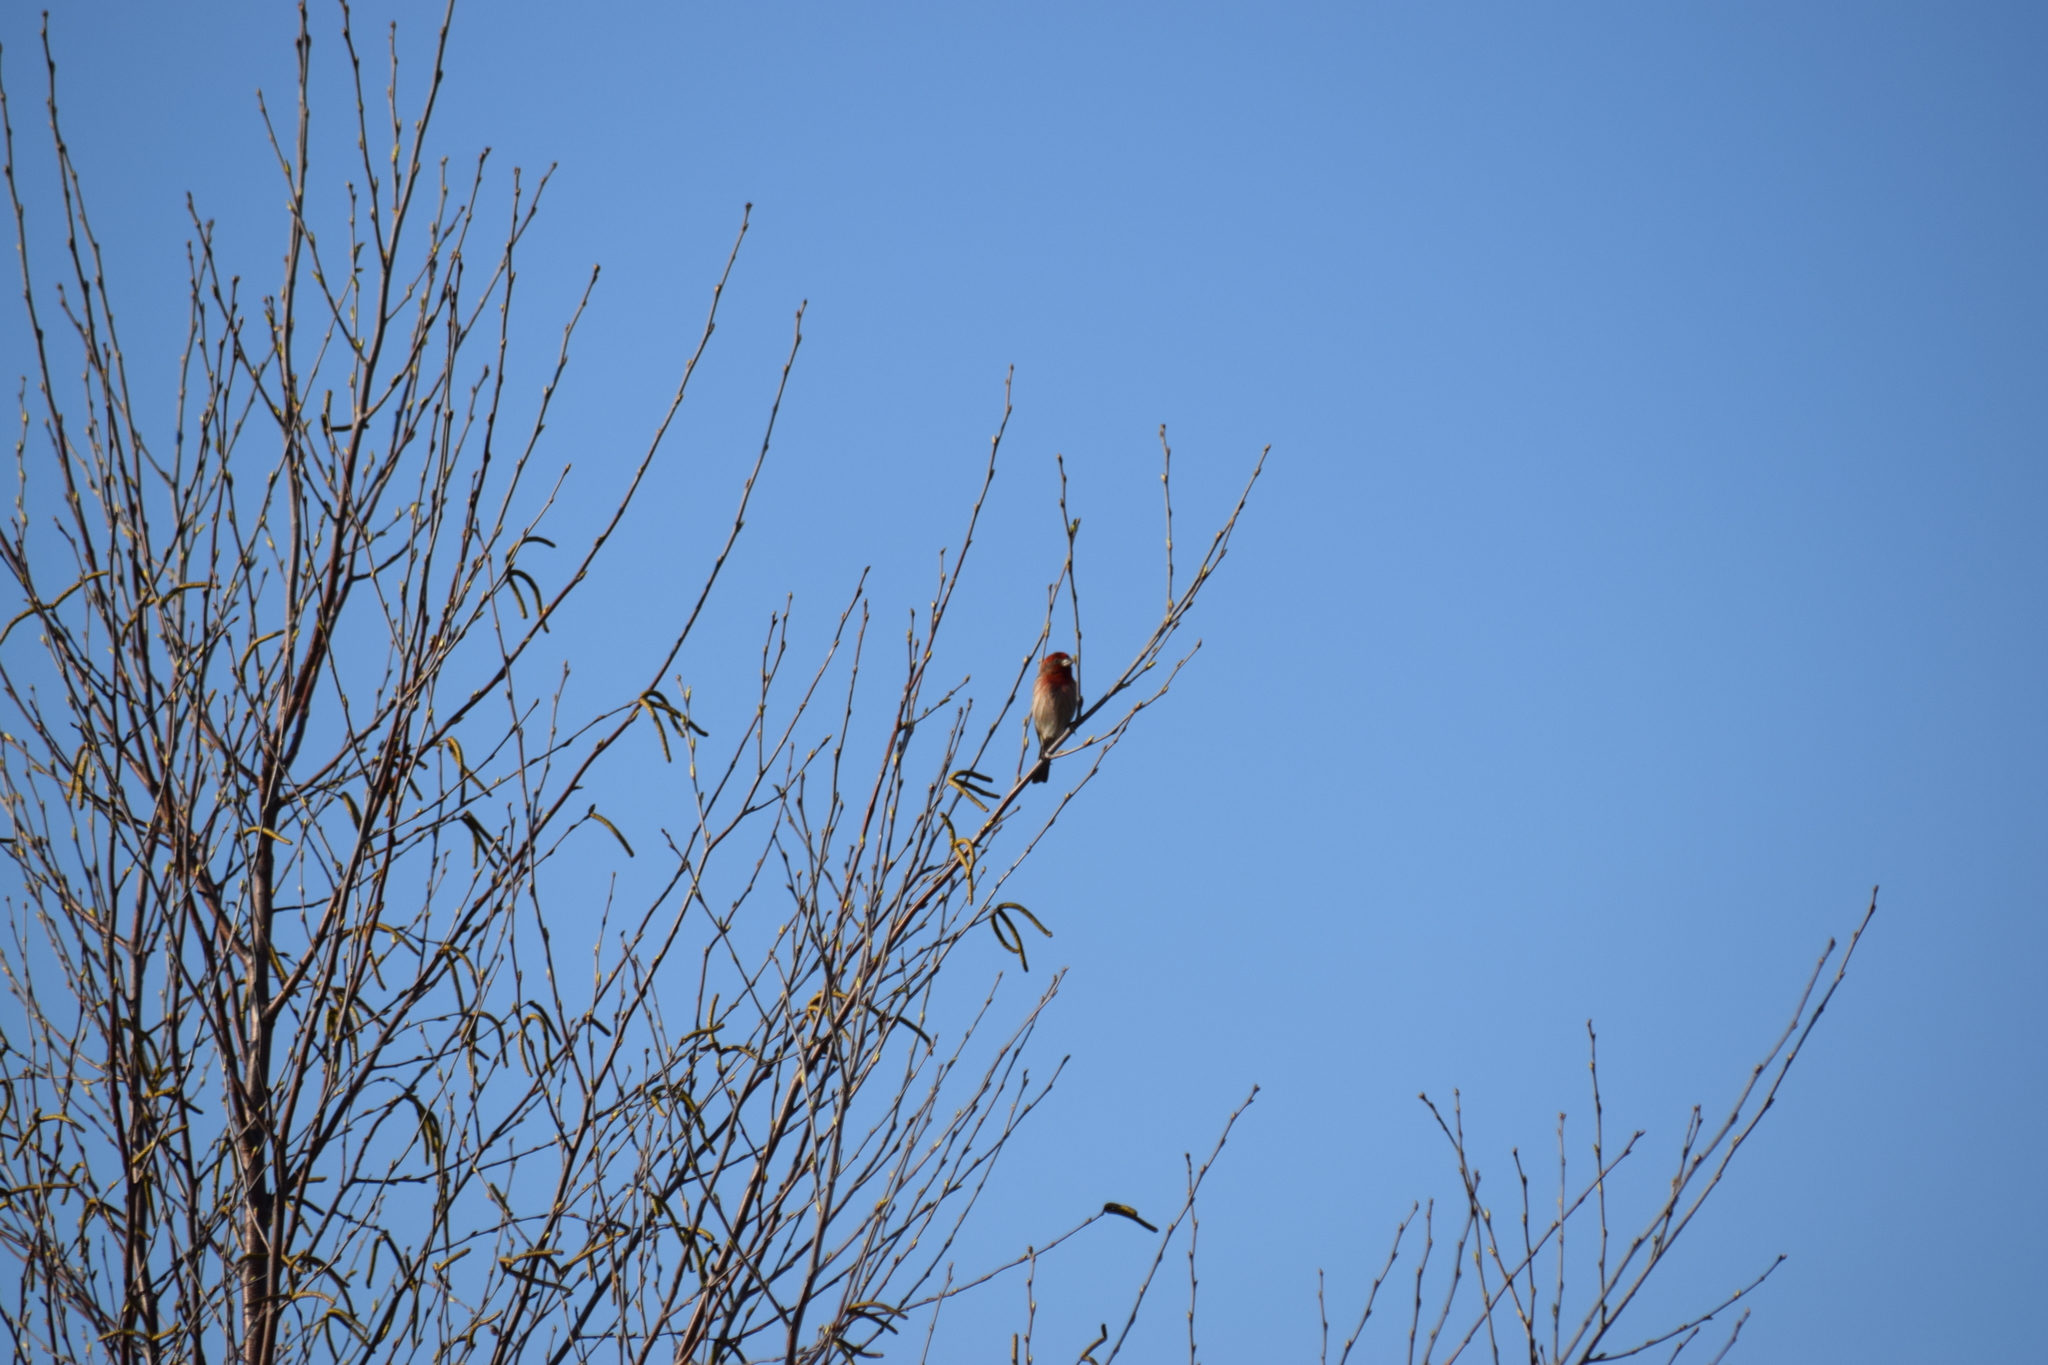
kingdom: Animalia
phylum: Chordata
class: Aves
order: Passeriformes
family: Fringillidae
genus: Haemorhous
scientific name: Haemorhous mexicanus
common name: House finch
